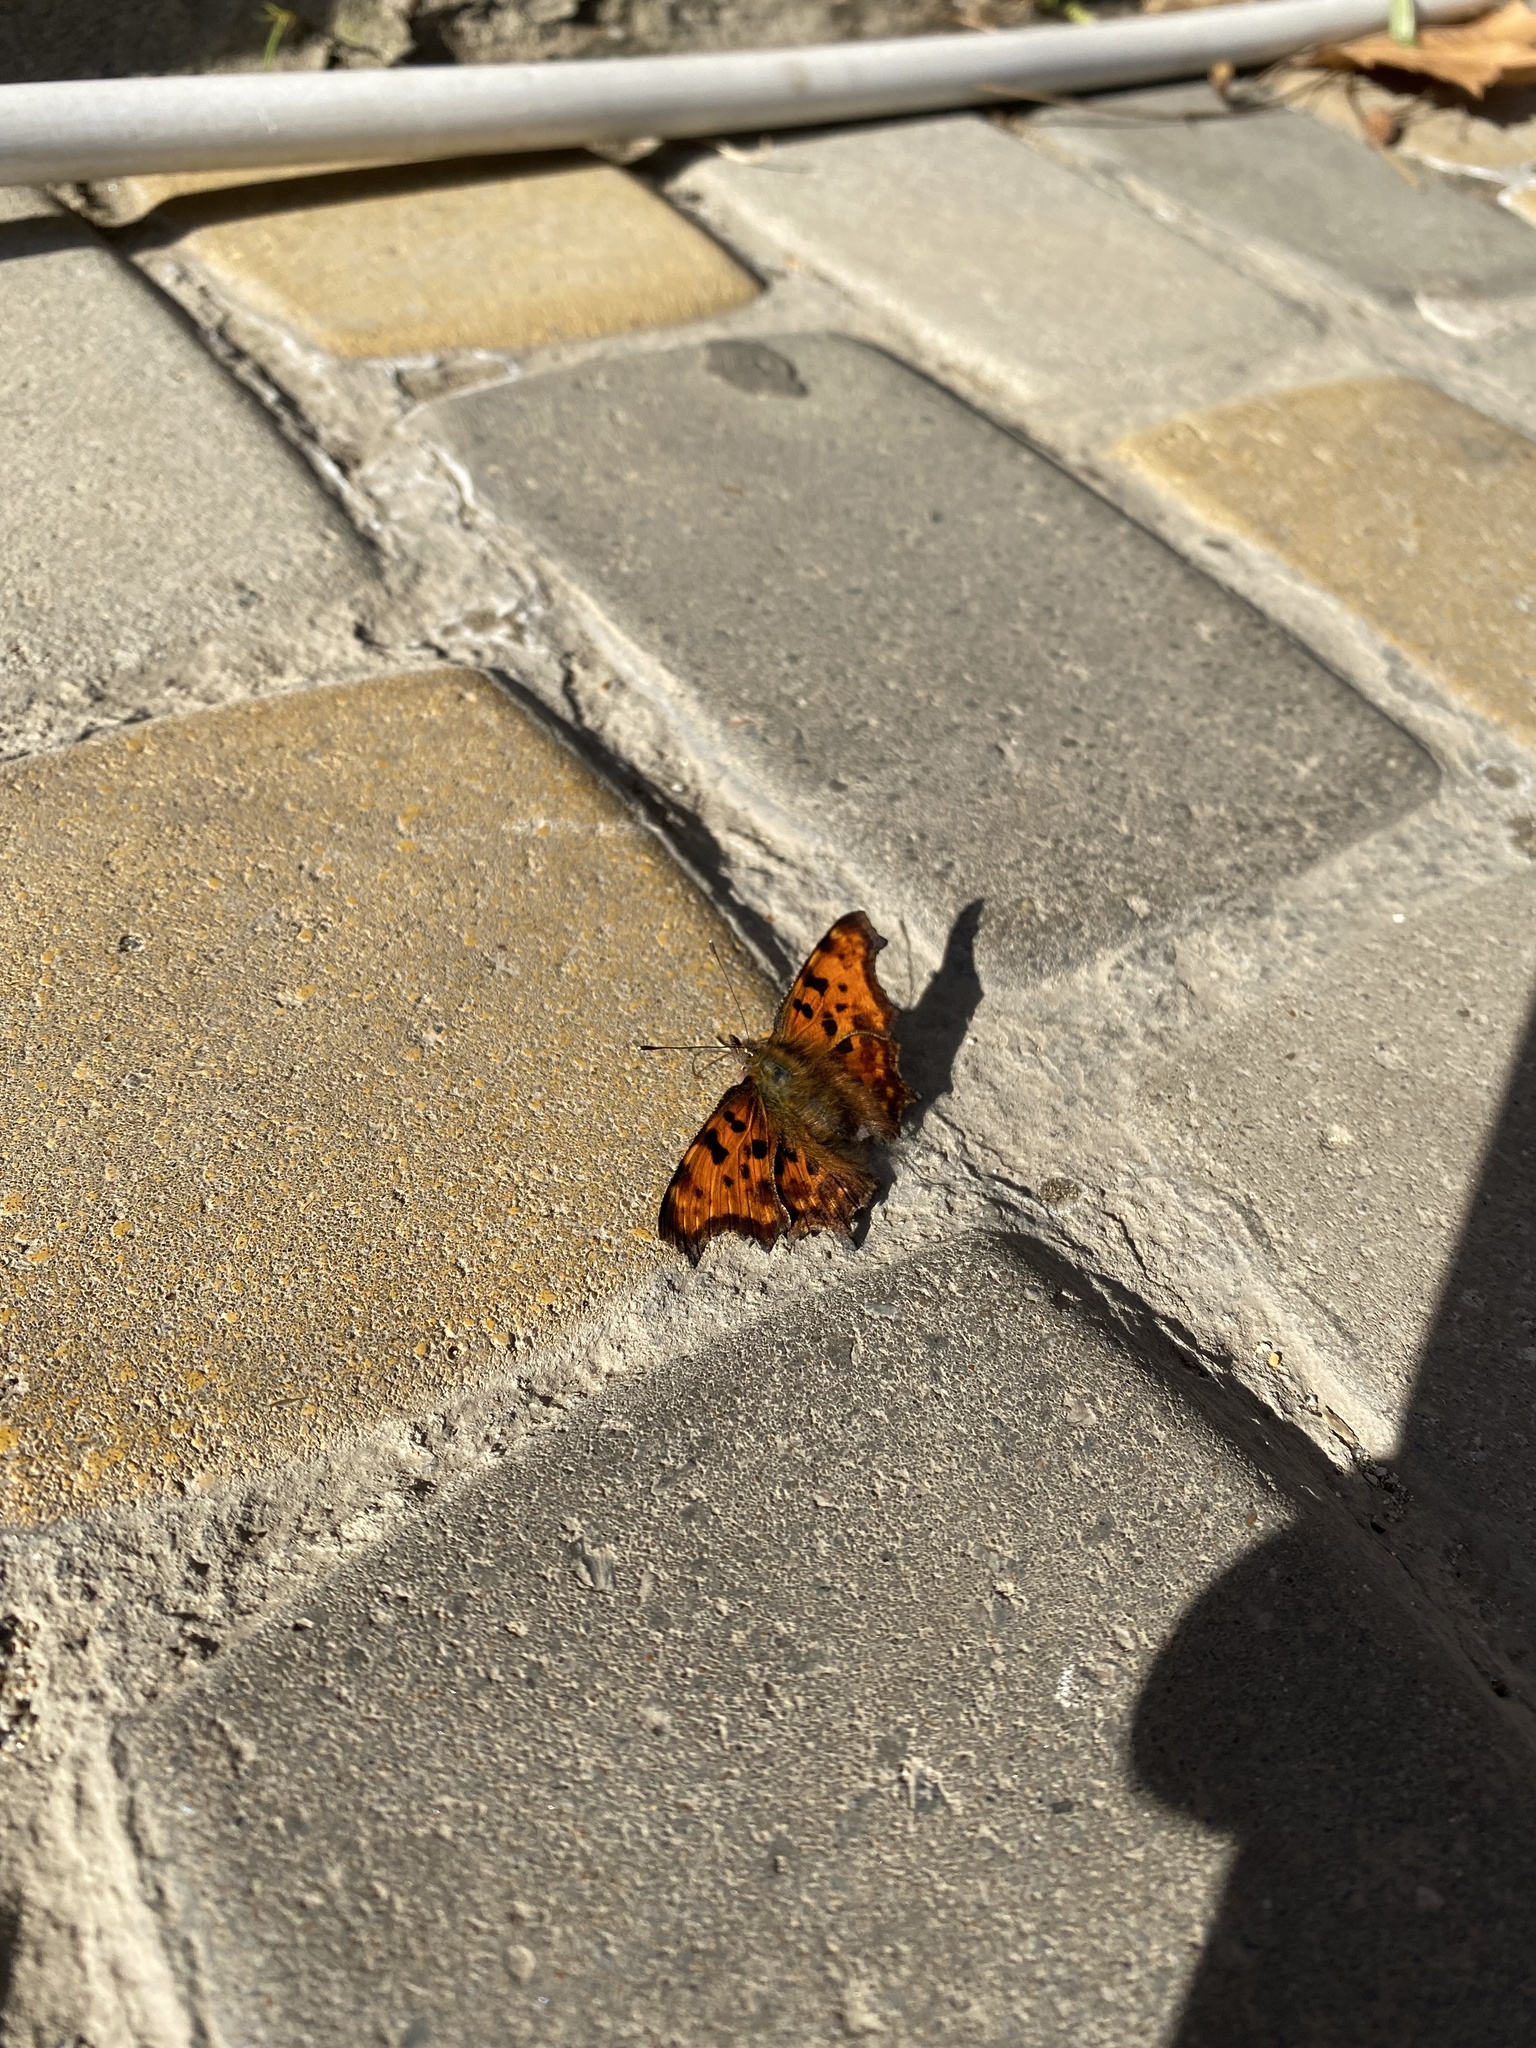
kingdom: Animalia
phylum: Arthropoda
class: Insecta
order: Lepidoptera
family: Nymphalidae
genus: Polygonia
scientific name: Polygonia c-album
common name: Comma
